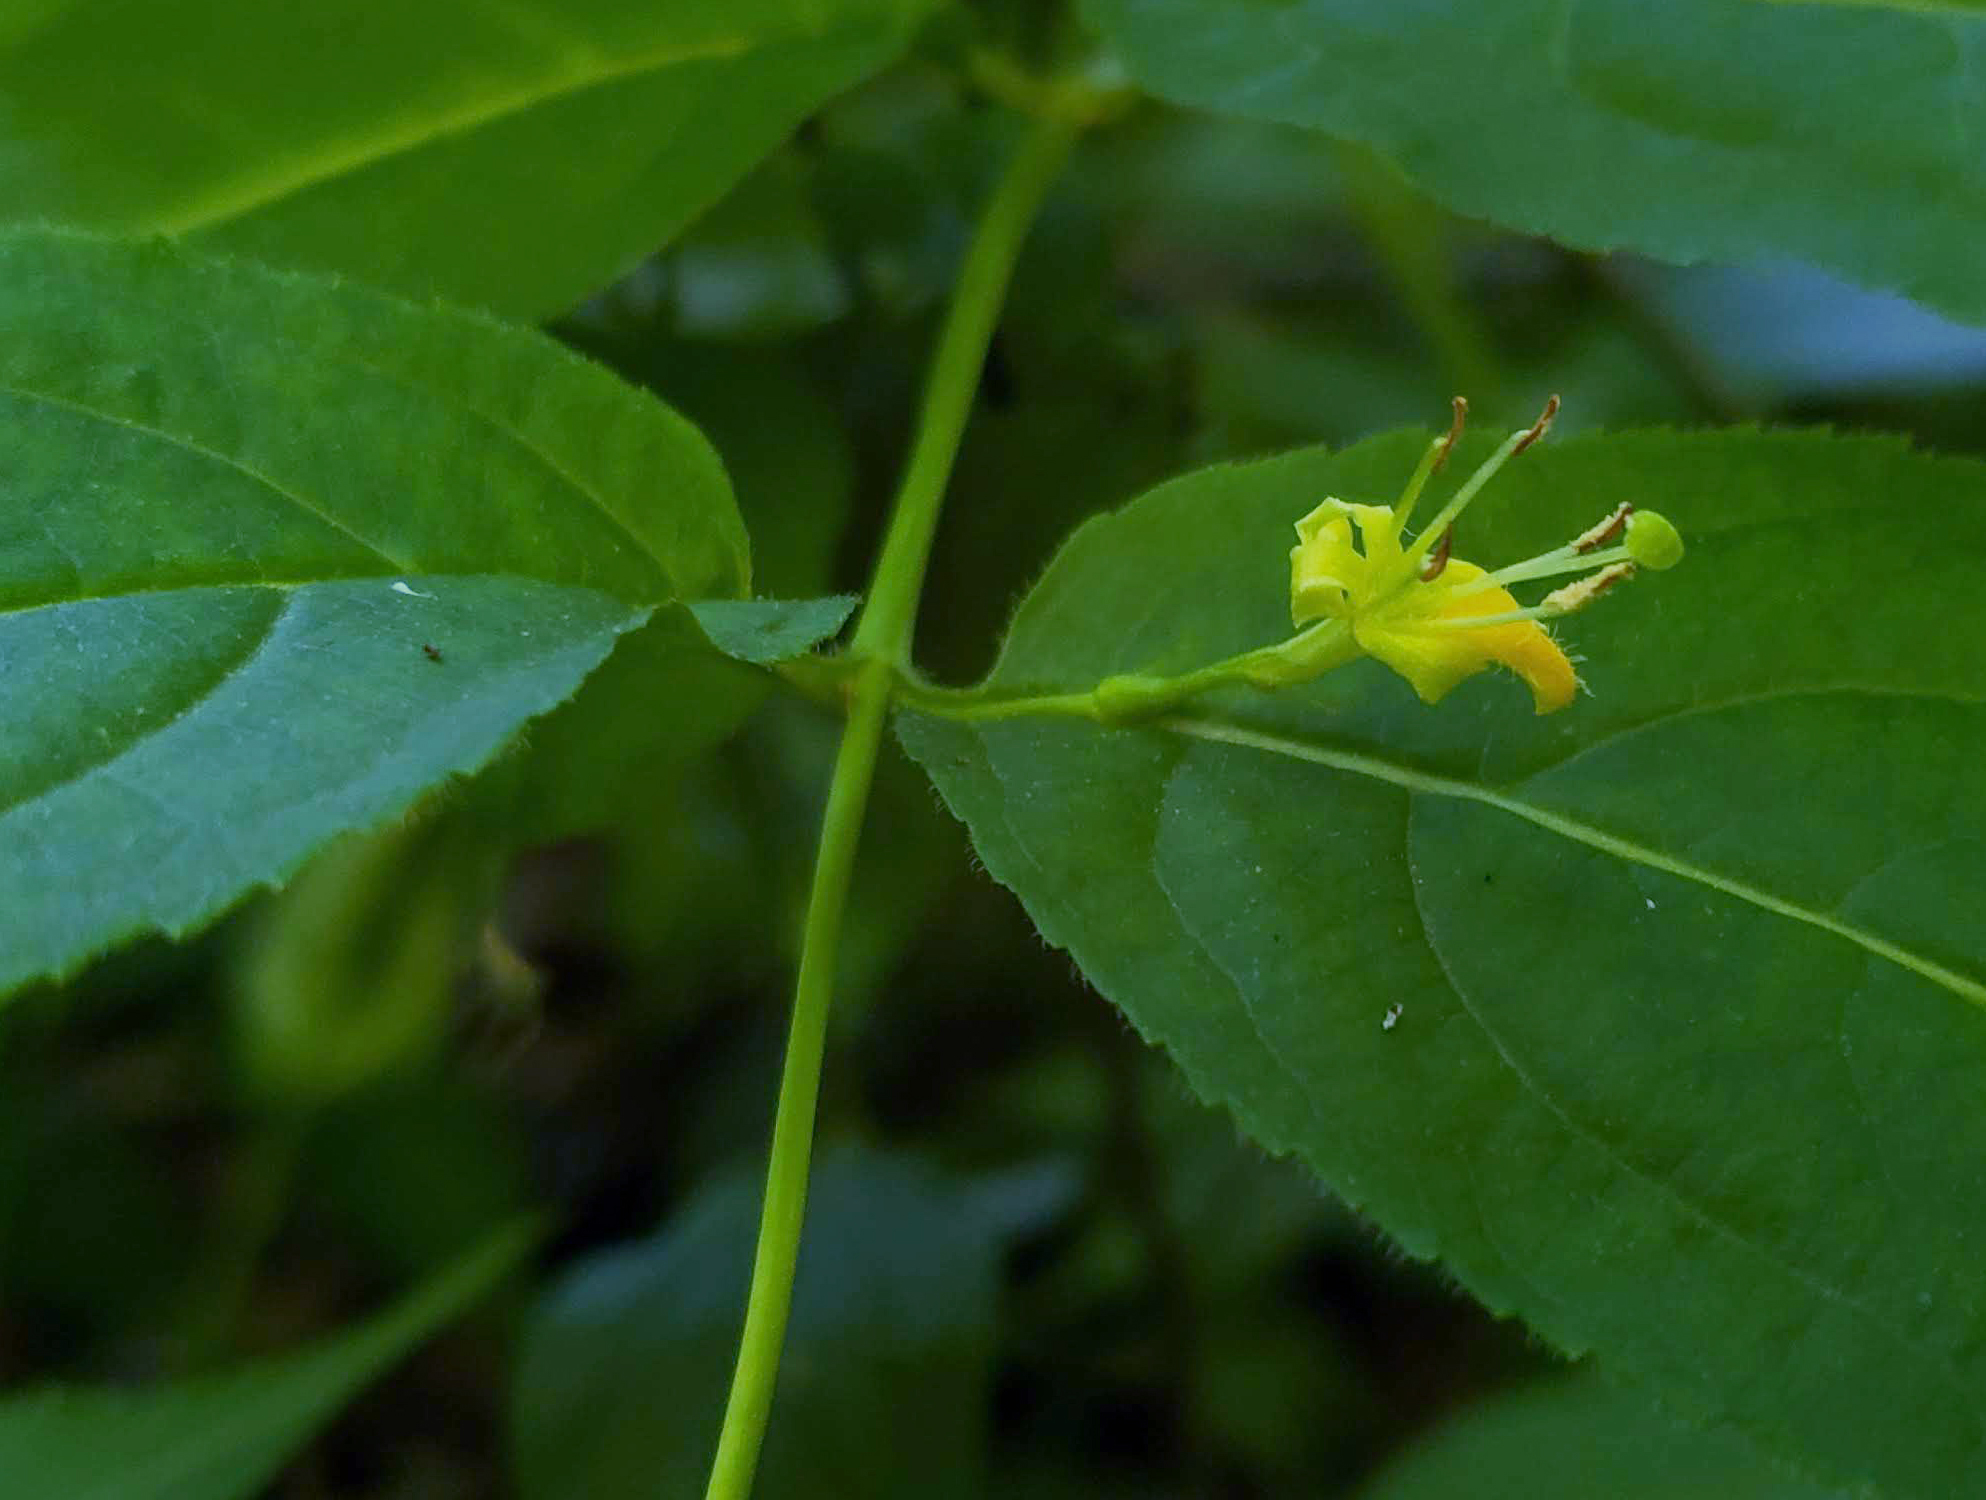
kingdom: Plantae
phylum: Tracheophyta
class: Magnoliopsida
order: Dipsacales
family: Caprifoliaceae
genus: Diervilla
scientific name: Diervilla lonicera
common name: Bush-honeysuckle
